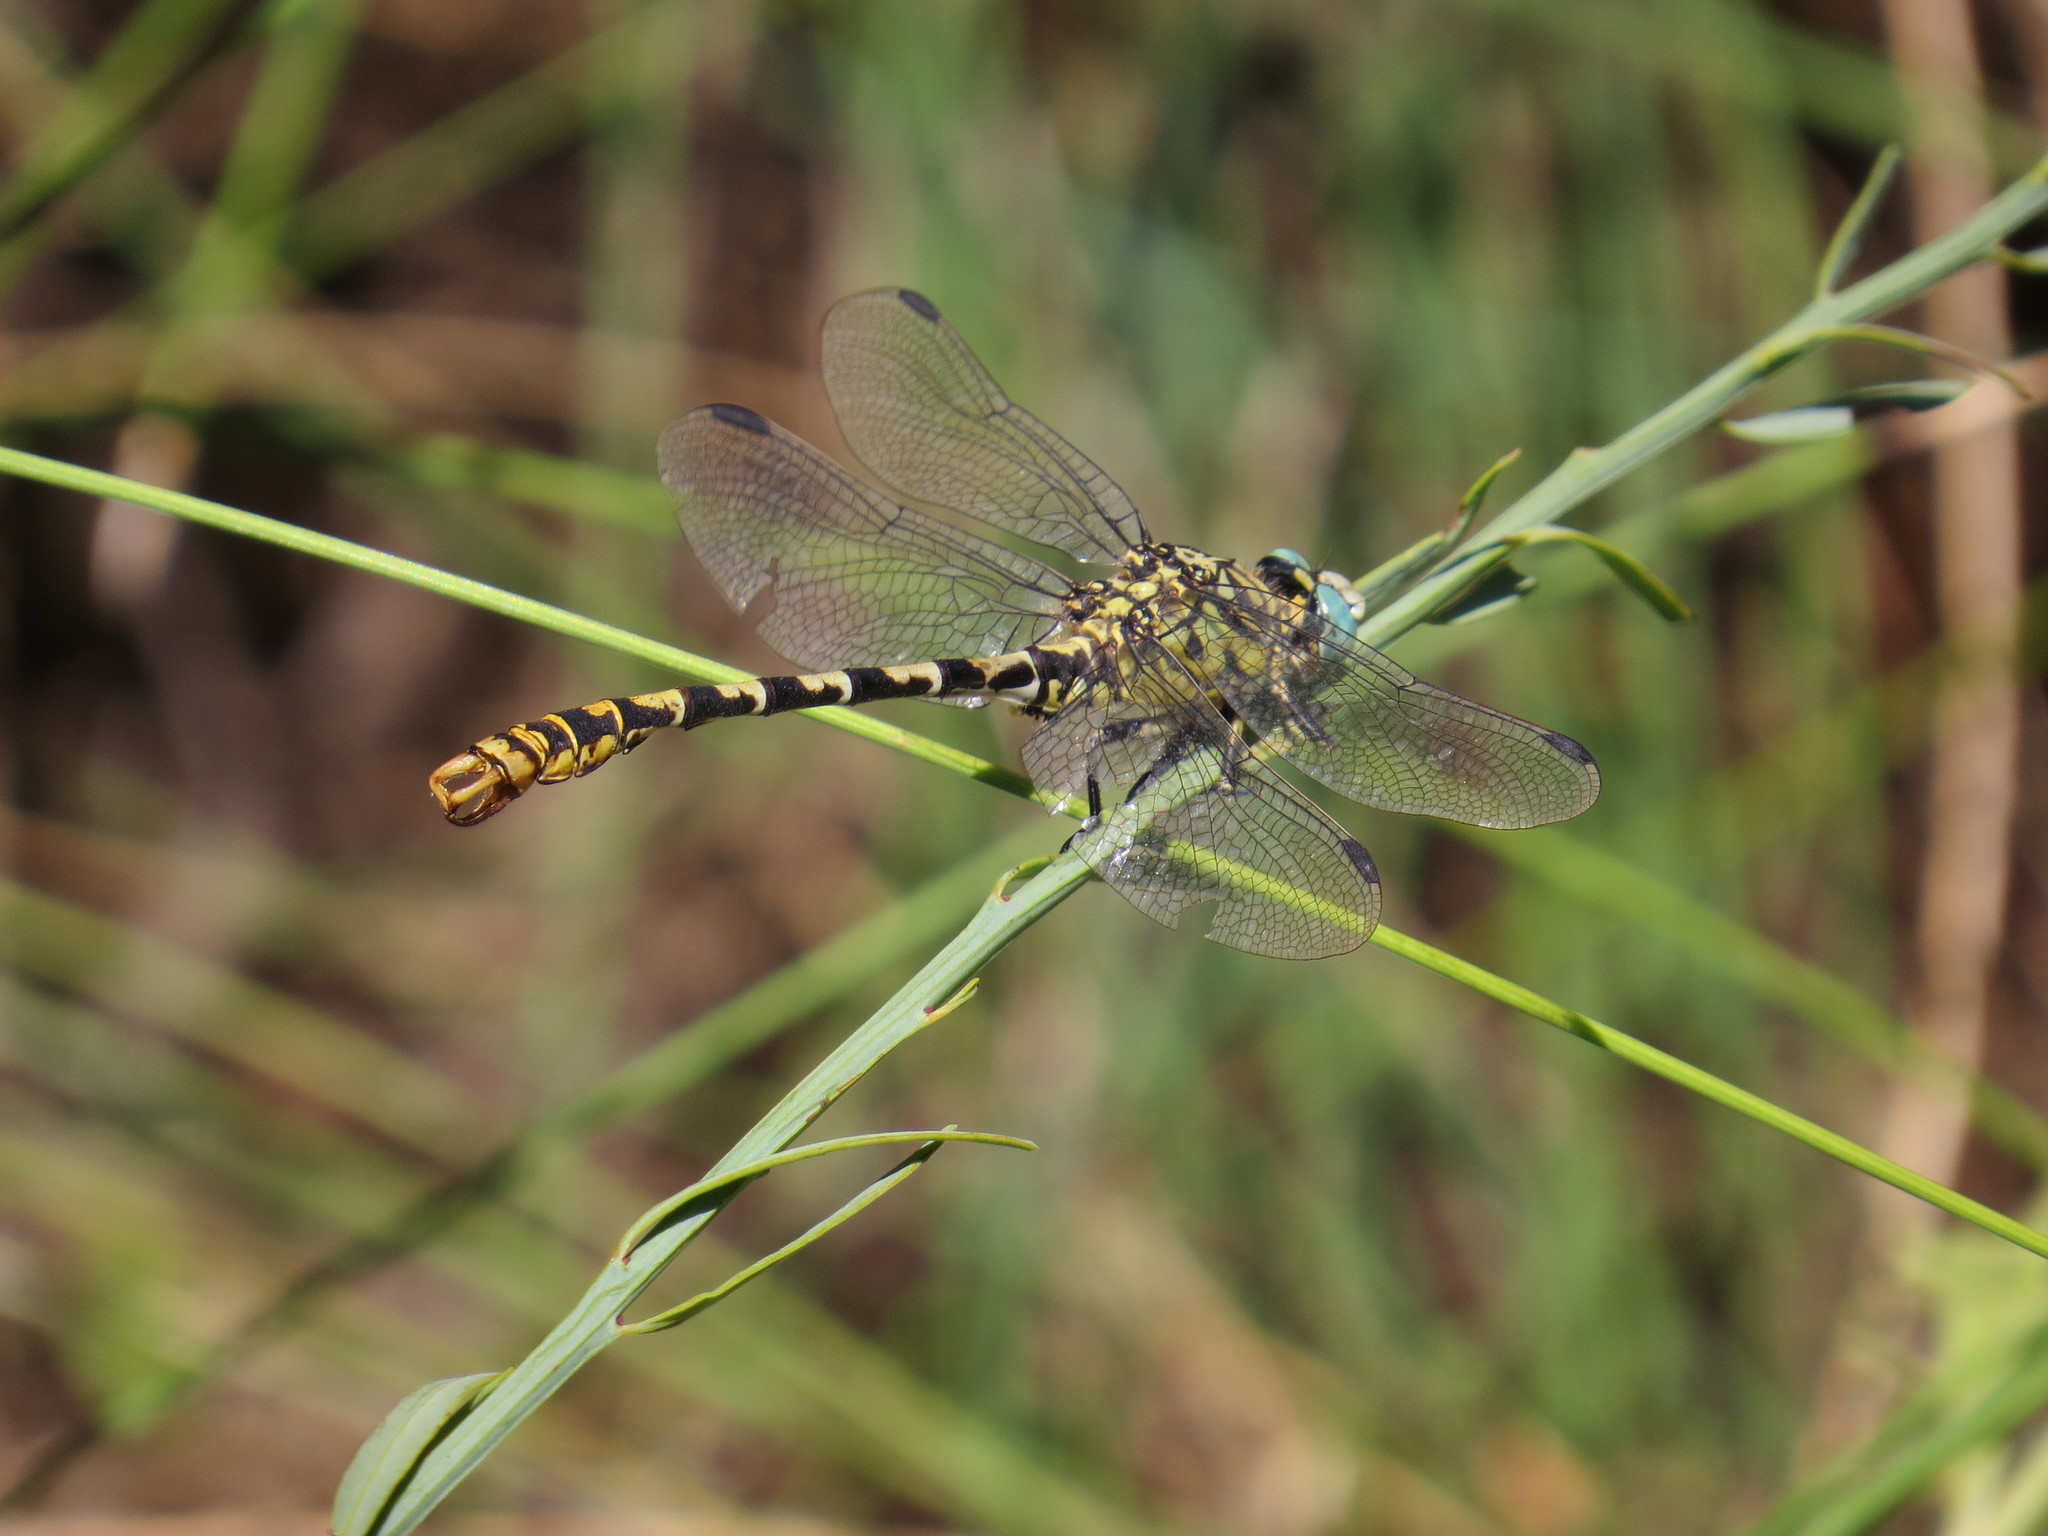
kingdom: Animalia
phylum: Arthropoda
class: Insecta
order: Odonata
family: Gomphidae
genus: Onychogomphus
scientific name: Onychogomphus forcipatus
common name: Small pincertail
